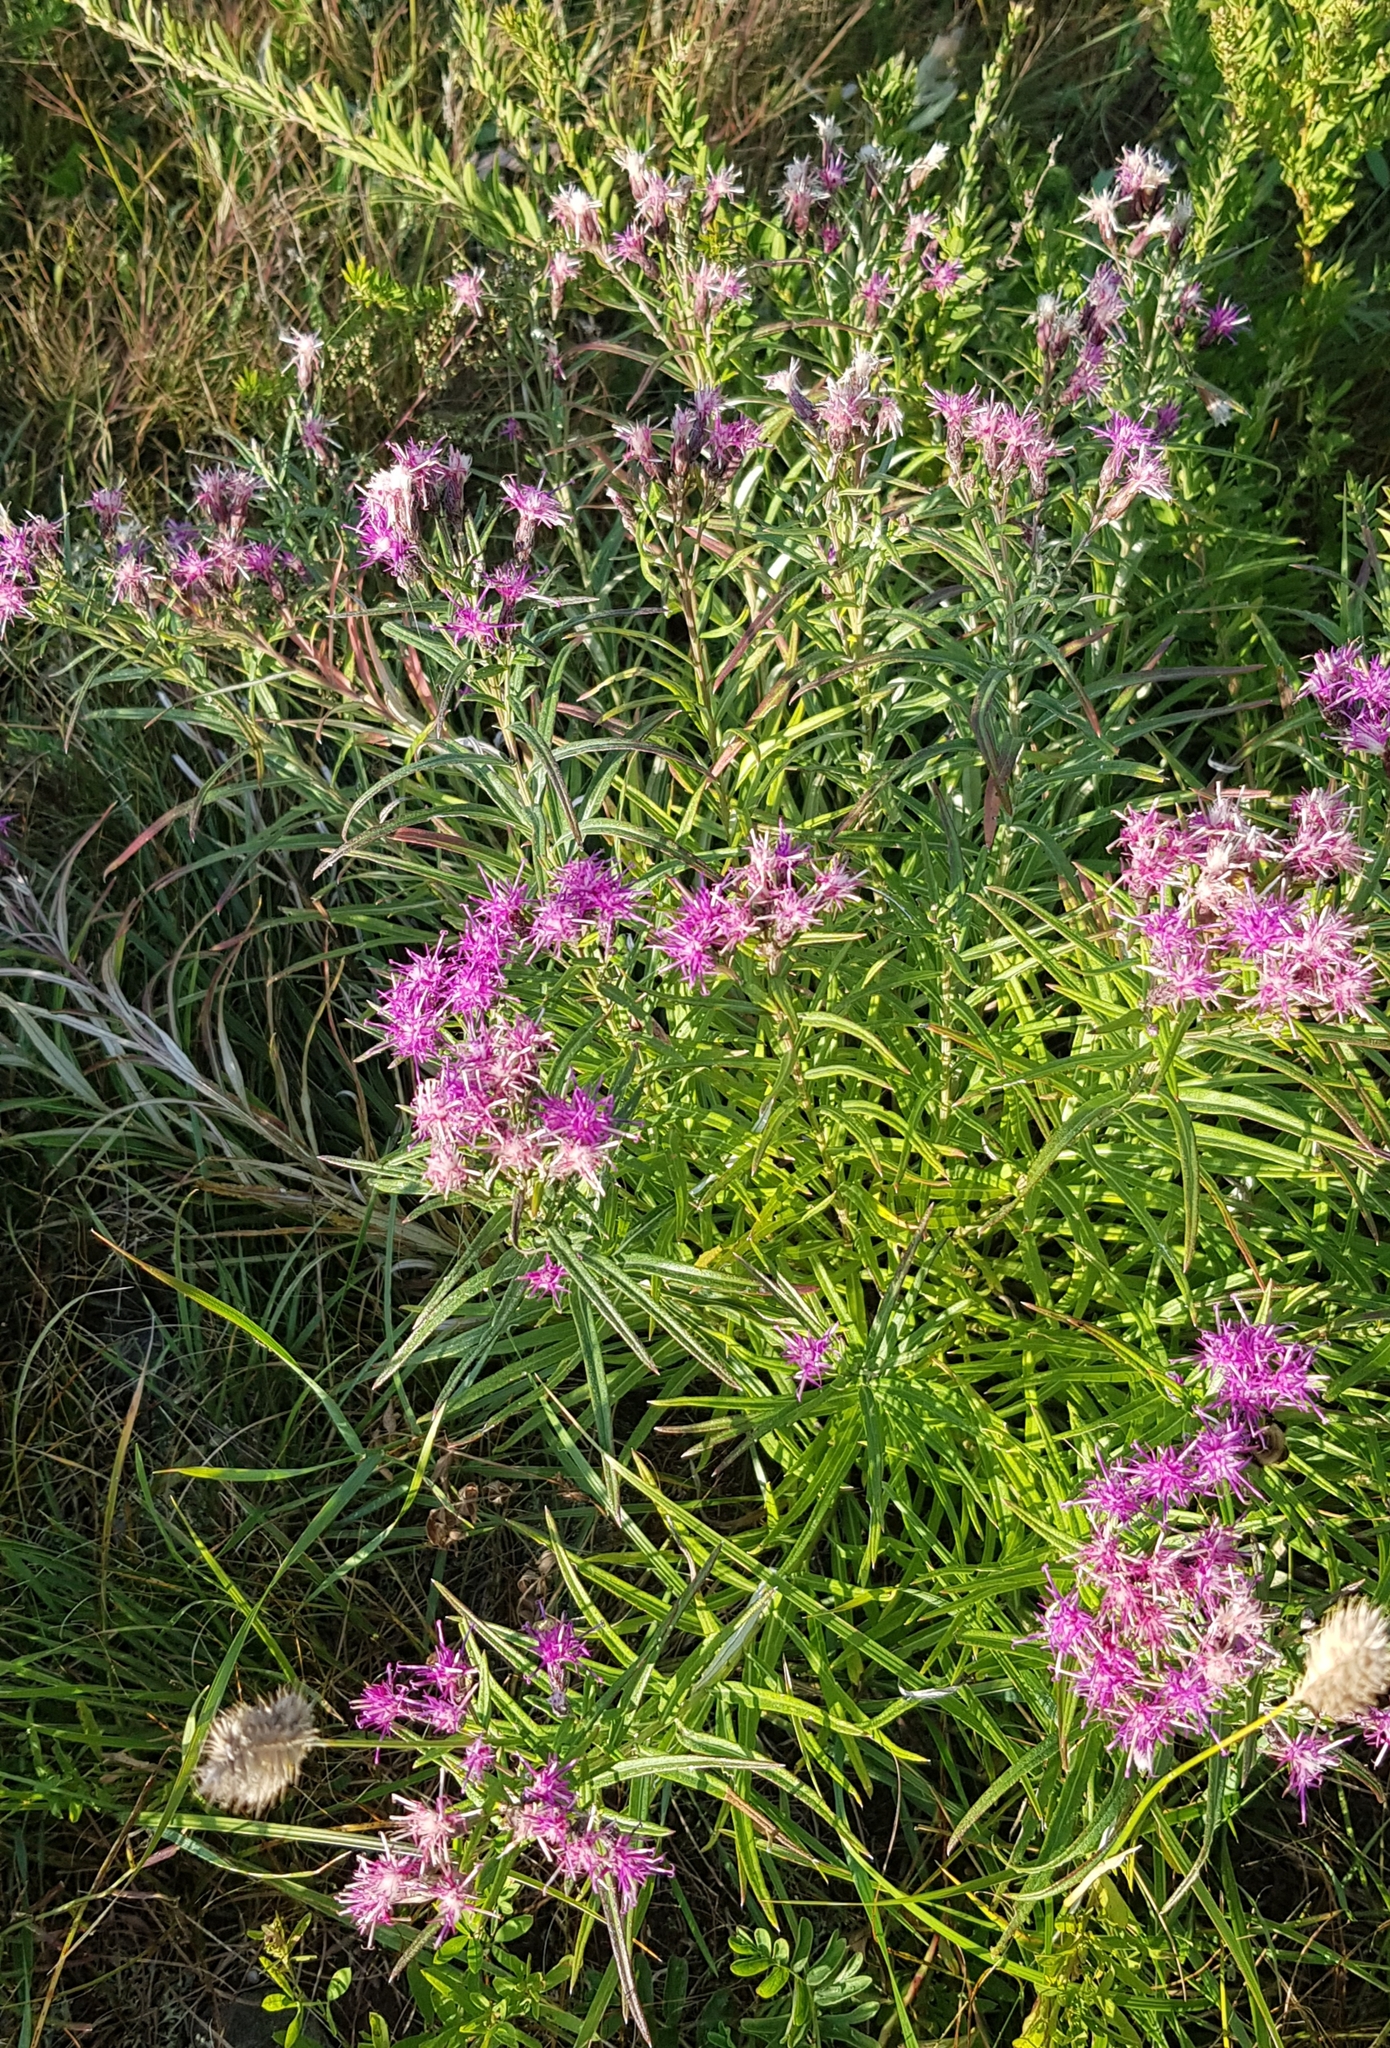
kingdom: Plantae
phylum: Tracheophyta
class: Magnoliopsida
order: Asterales
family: Asteraceae
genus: Saussurea
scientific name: Saussurea salicifolia
